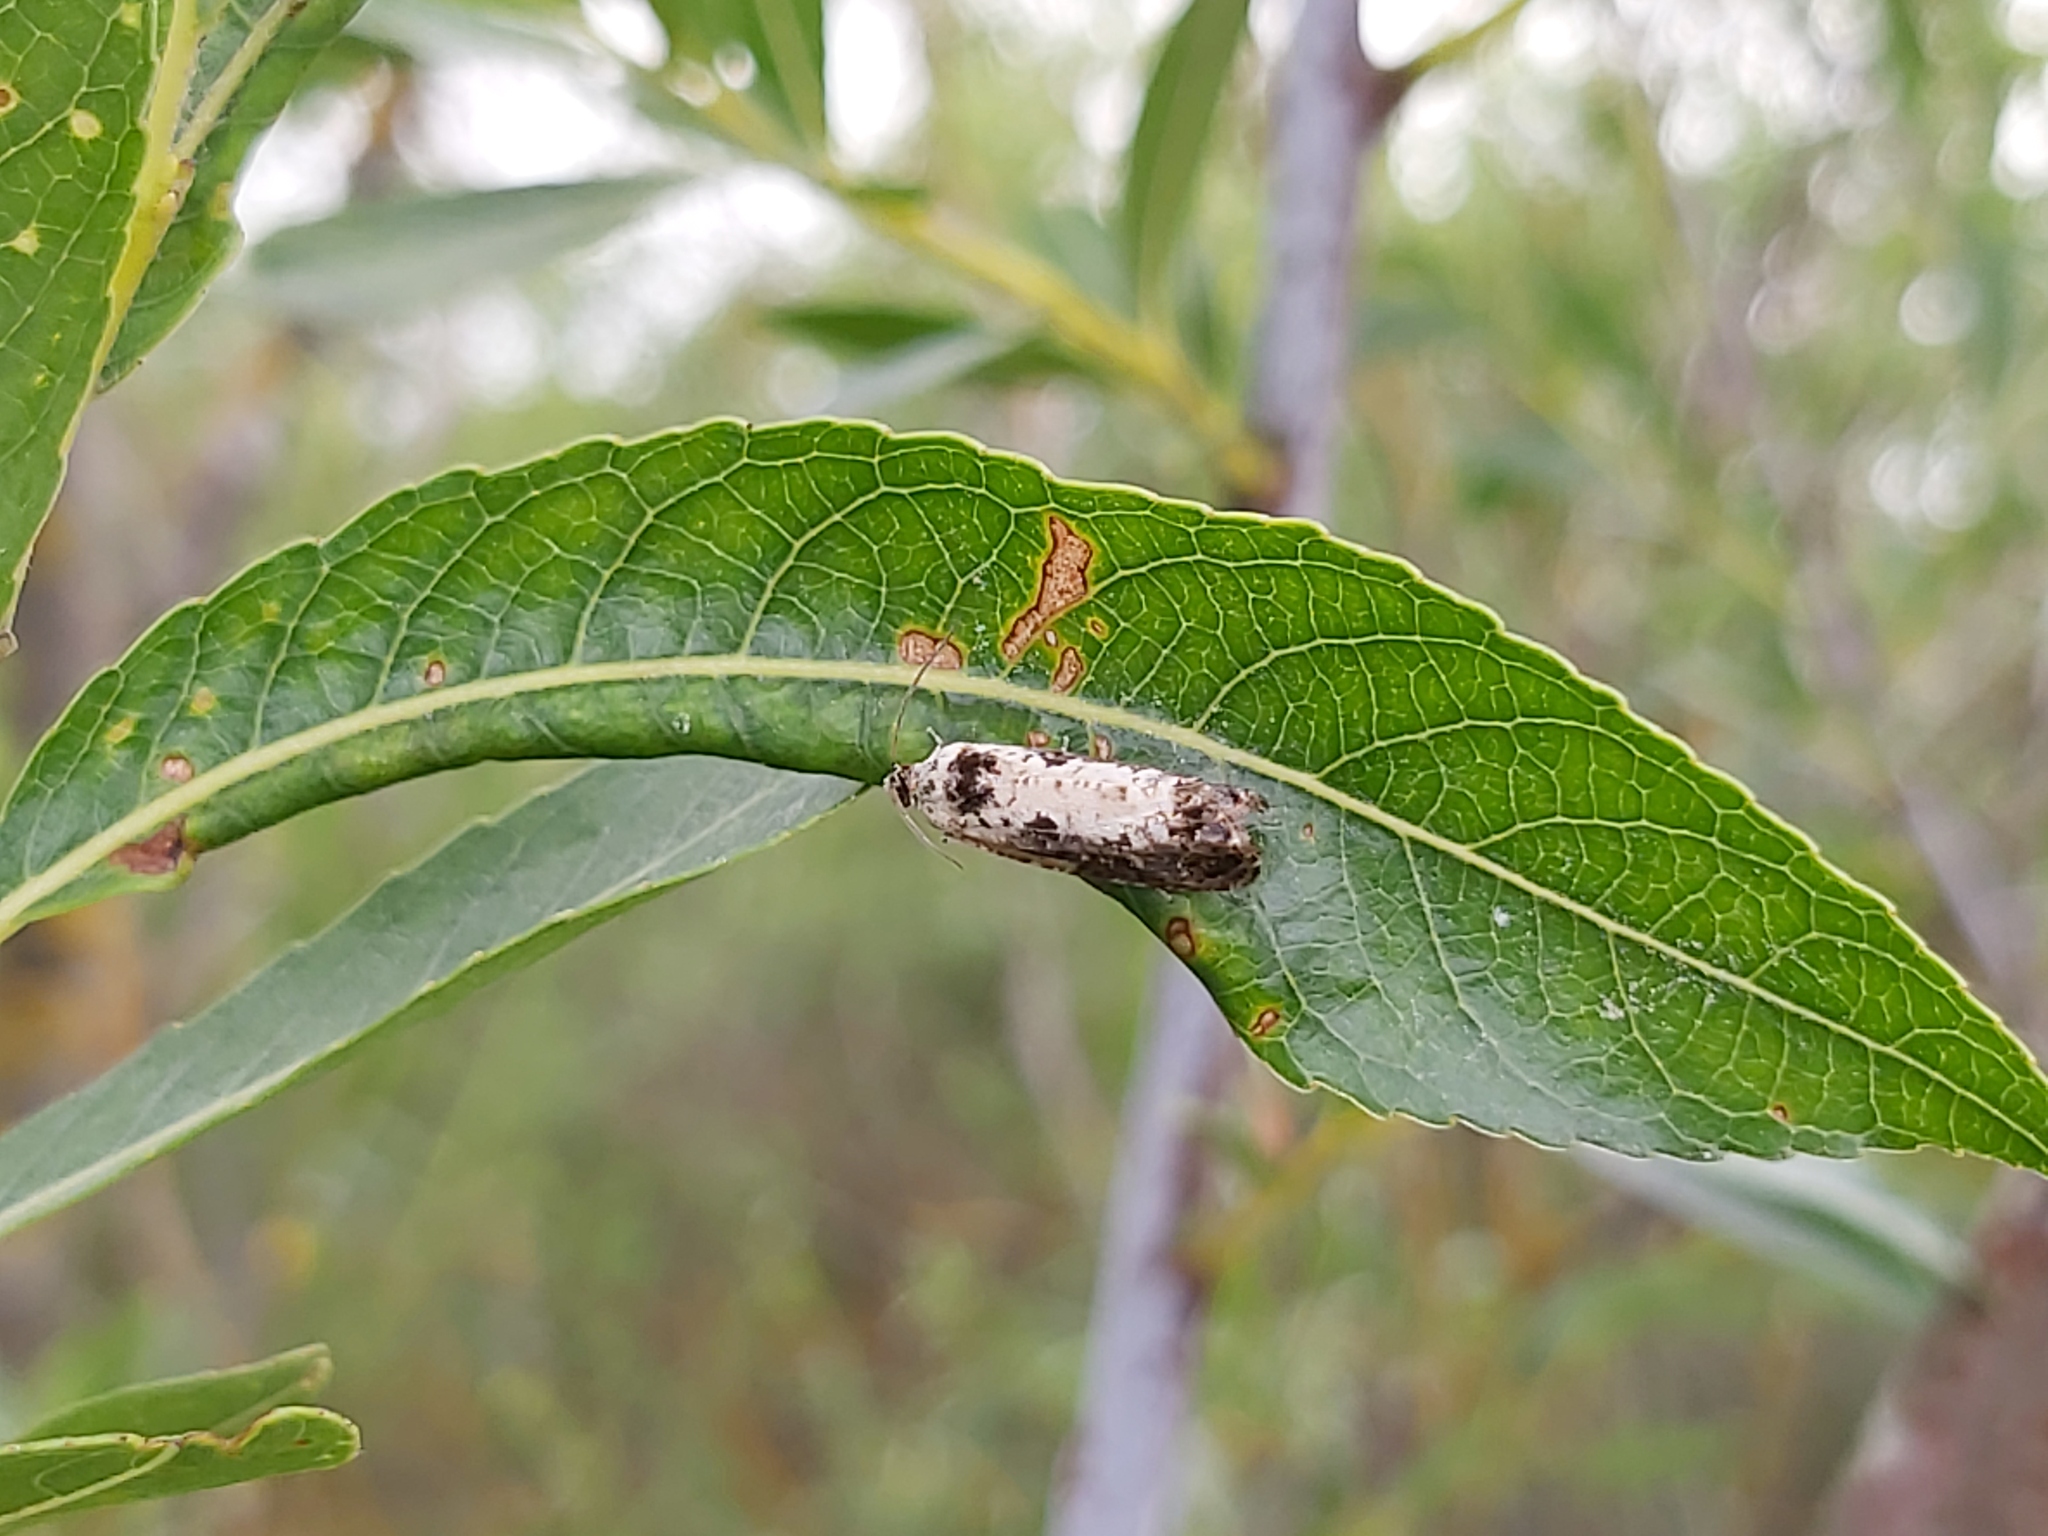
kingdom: Animalia
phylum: Arthropoda
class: Insecta
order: Lepidoptera
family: Tortricidae
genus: Hedya
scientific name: Hedya salicella
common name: Large tortricid moth
